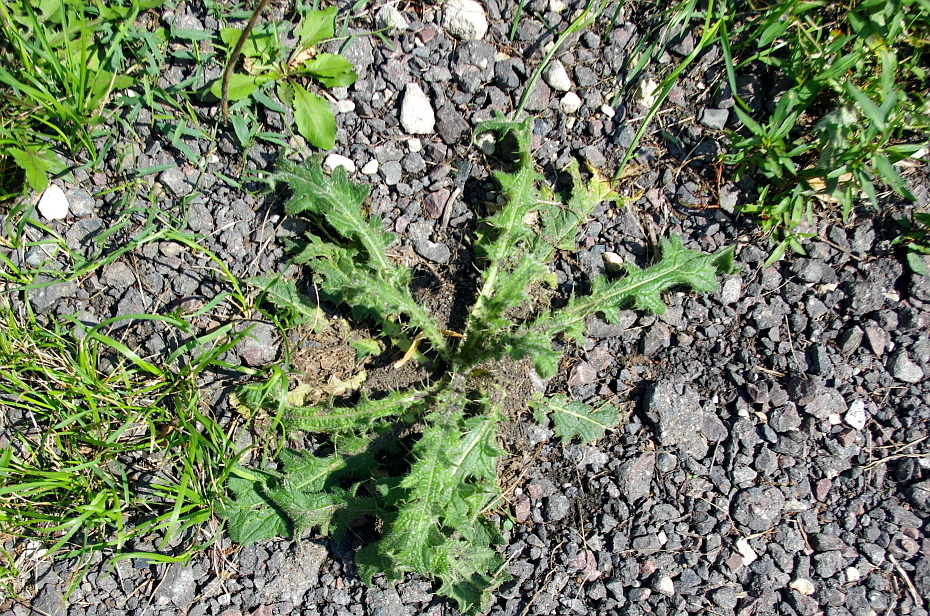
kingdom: Plantae
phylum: Tracheophyta
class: Magnoliopsida
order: Asterales
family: Asteraceae
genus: Cirsium
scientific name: Cirsium vulgare
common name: Bull thistle
